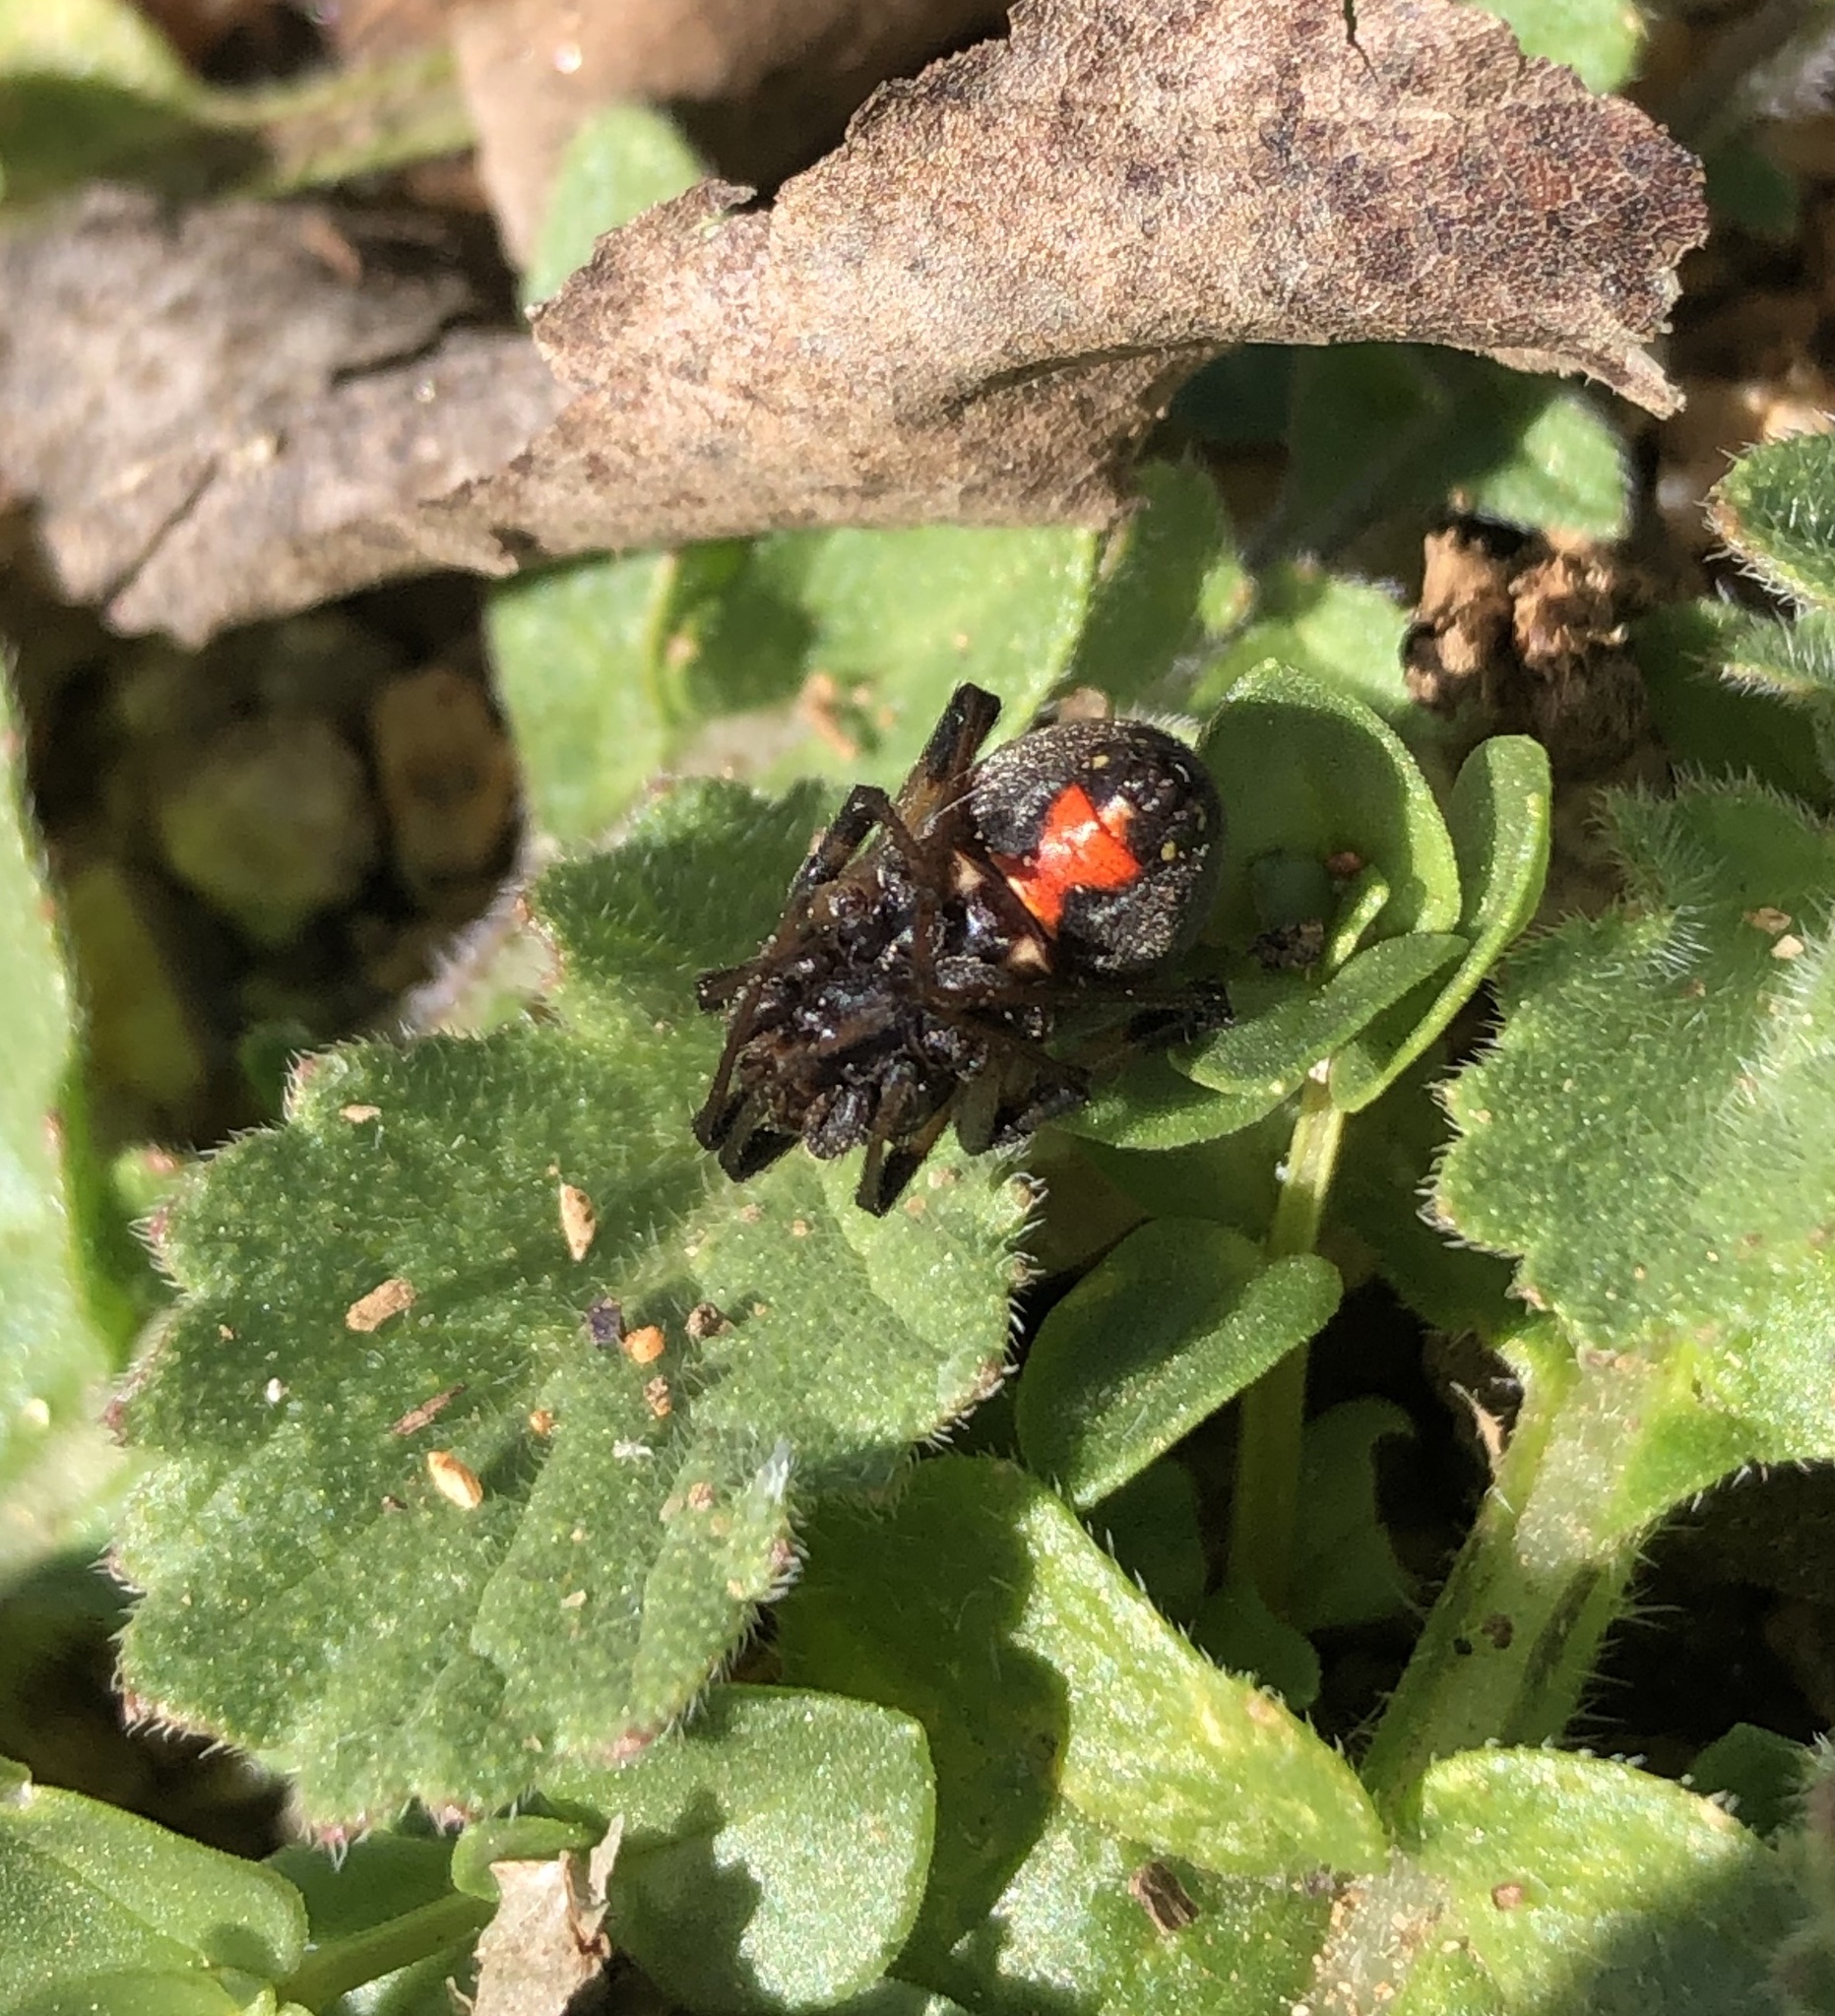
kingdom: Animalia
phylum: Arthropoda
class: Arachnida
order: Araneae
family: Theridiidae
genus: Latrodectus
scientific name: Latrodectus geometricus
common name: Brown widow spider
